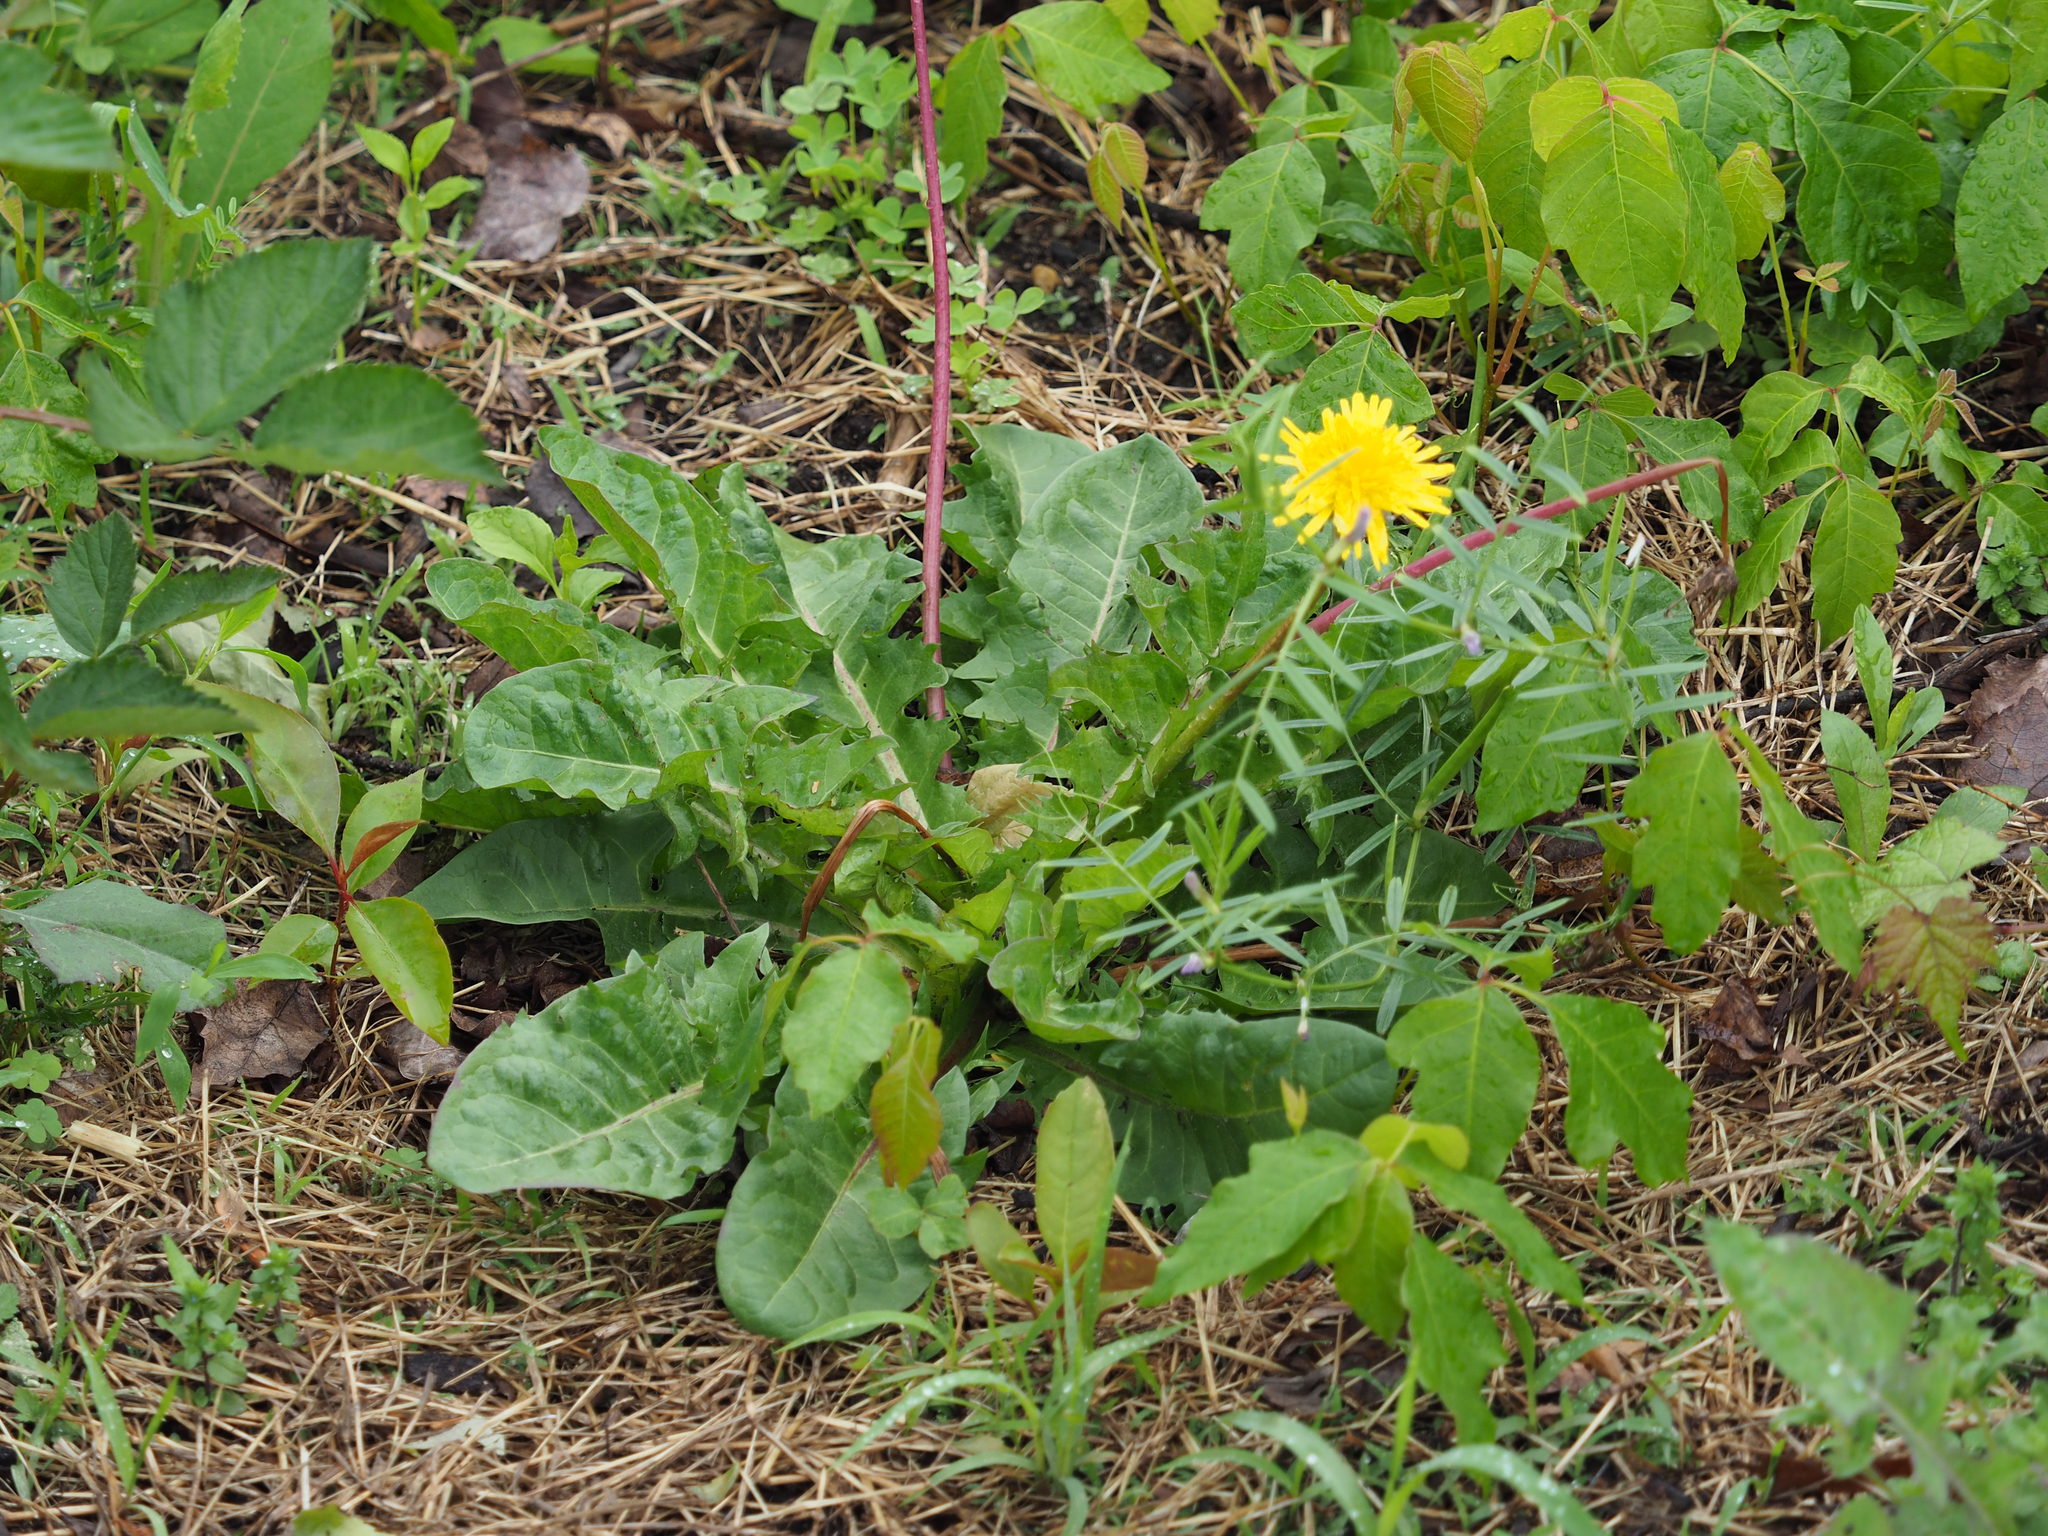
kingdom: Plantae
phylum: Tracheophyta
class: Magnoliopsida
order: Asterales
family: Asteraceae
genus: Taraxacum
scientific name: Taraxacum officinale
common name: Common dandelion
